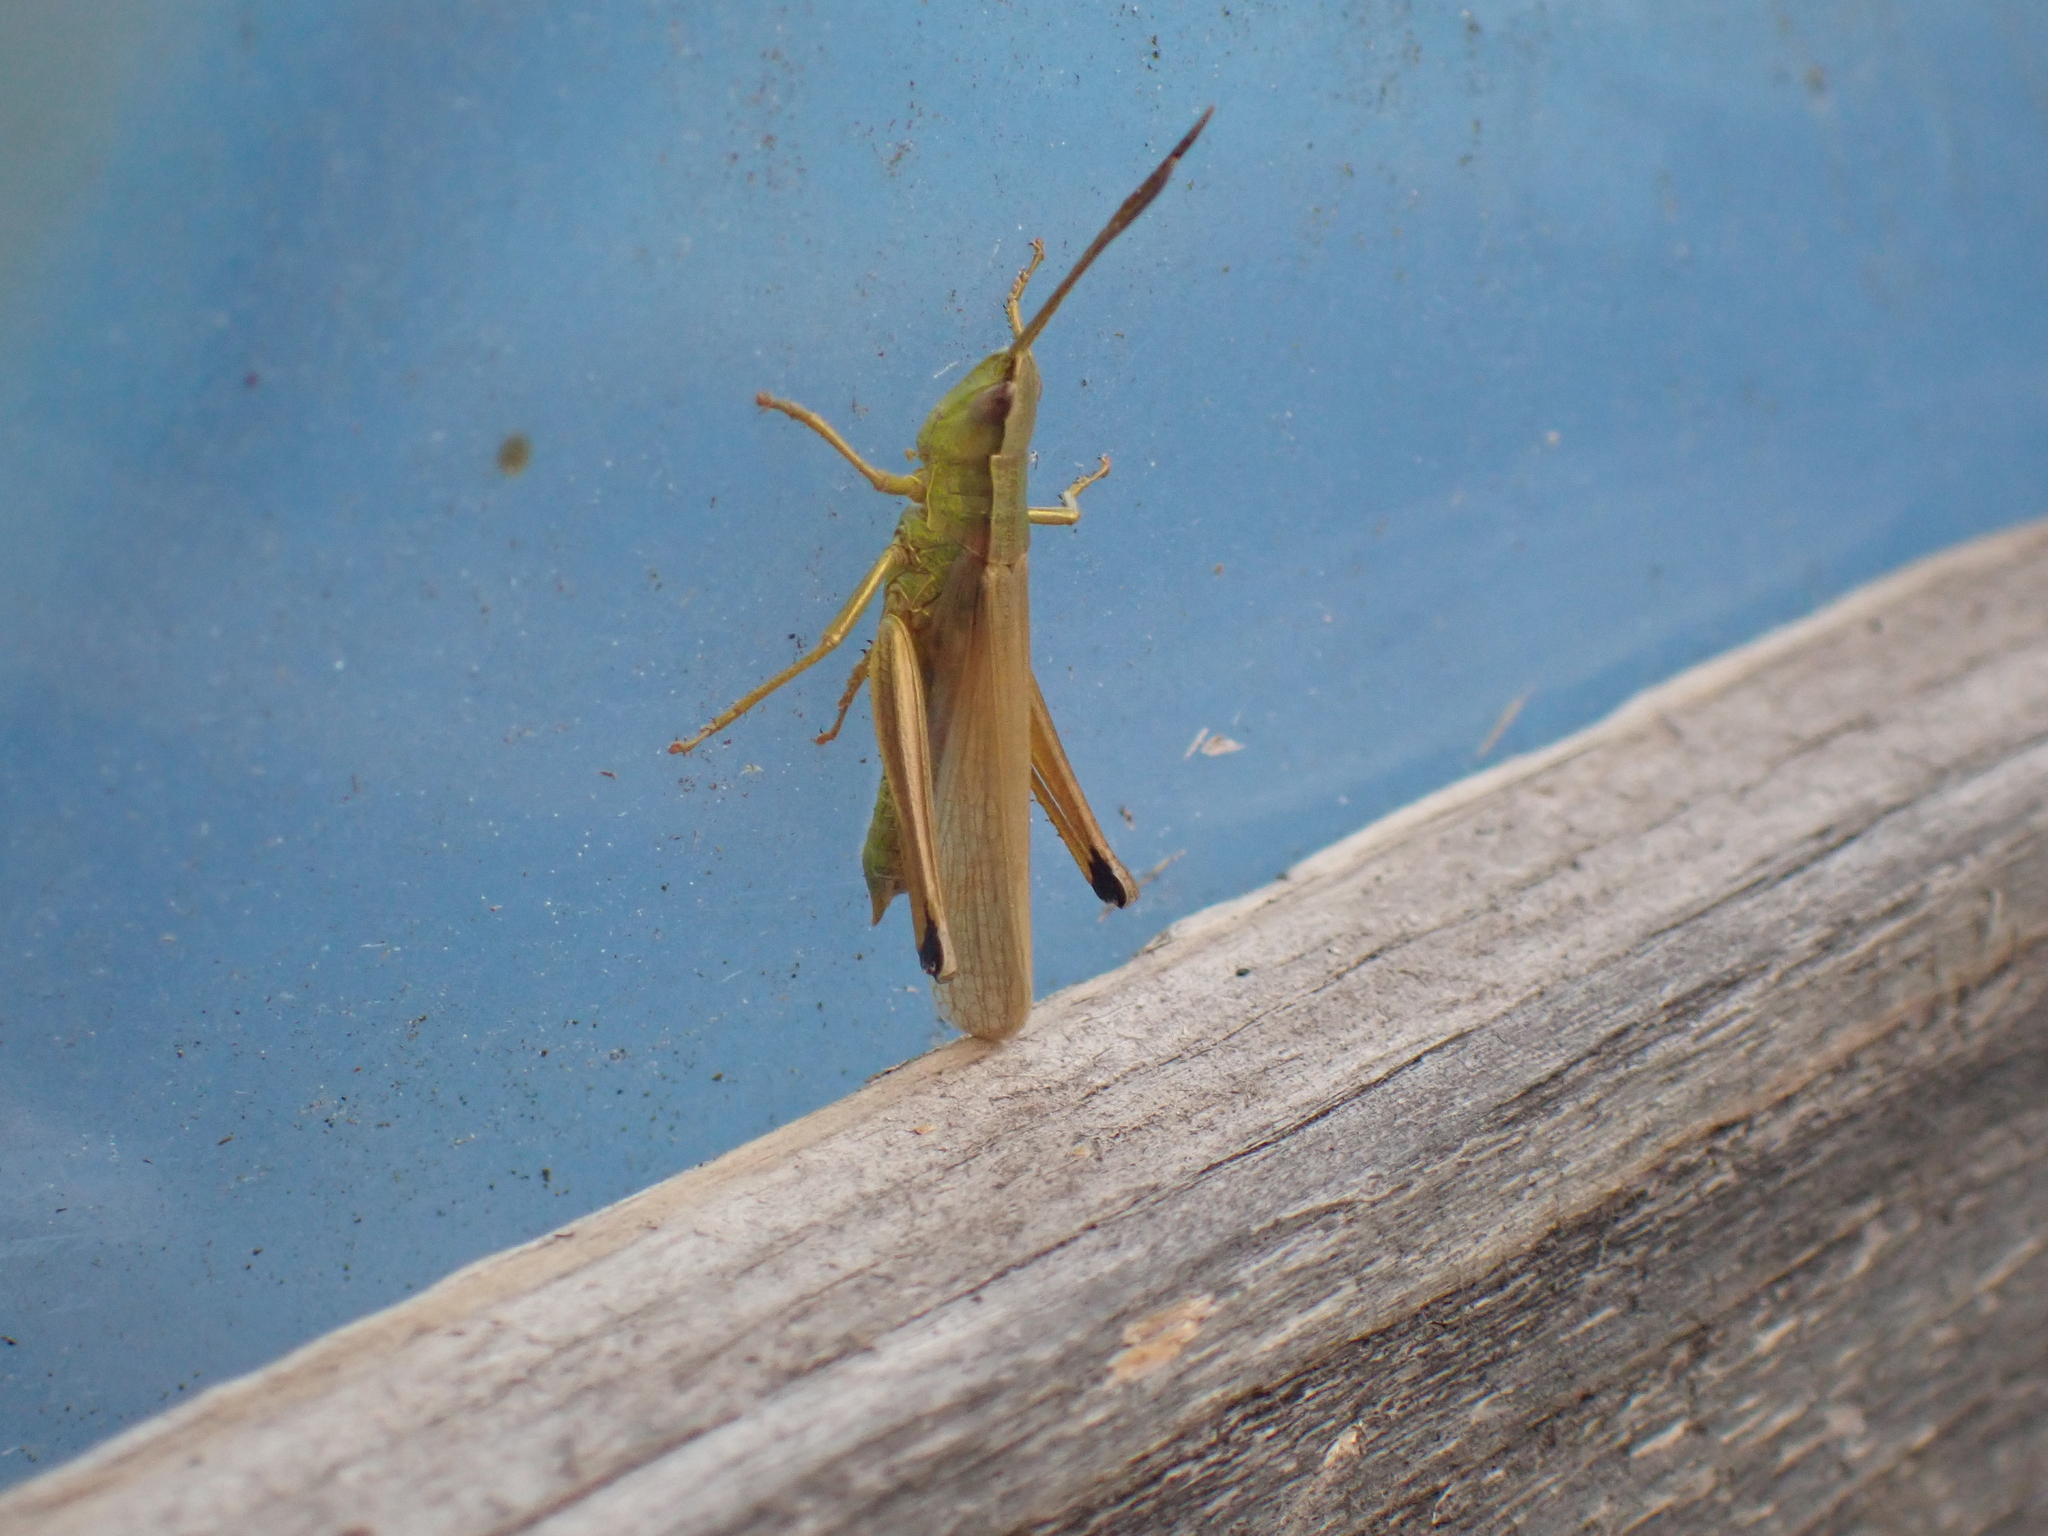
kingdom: Animalia
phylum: Arthropoda
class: Insecta
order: Orthoptera
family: Acrididae
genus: Chrysochraon
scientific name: Chrysochraon dispar
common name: Large gold grasshopper
